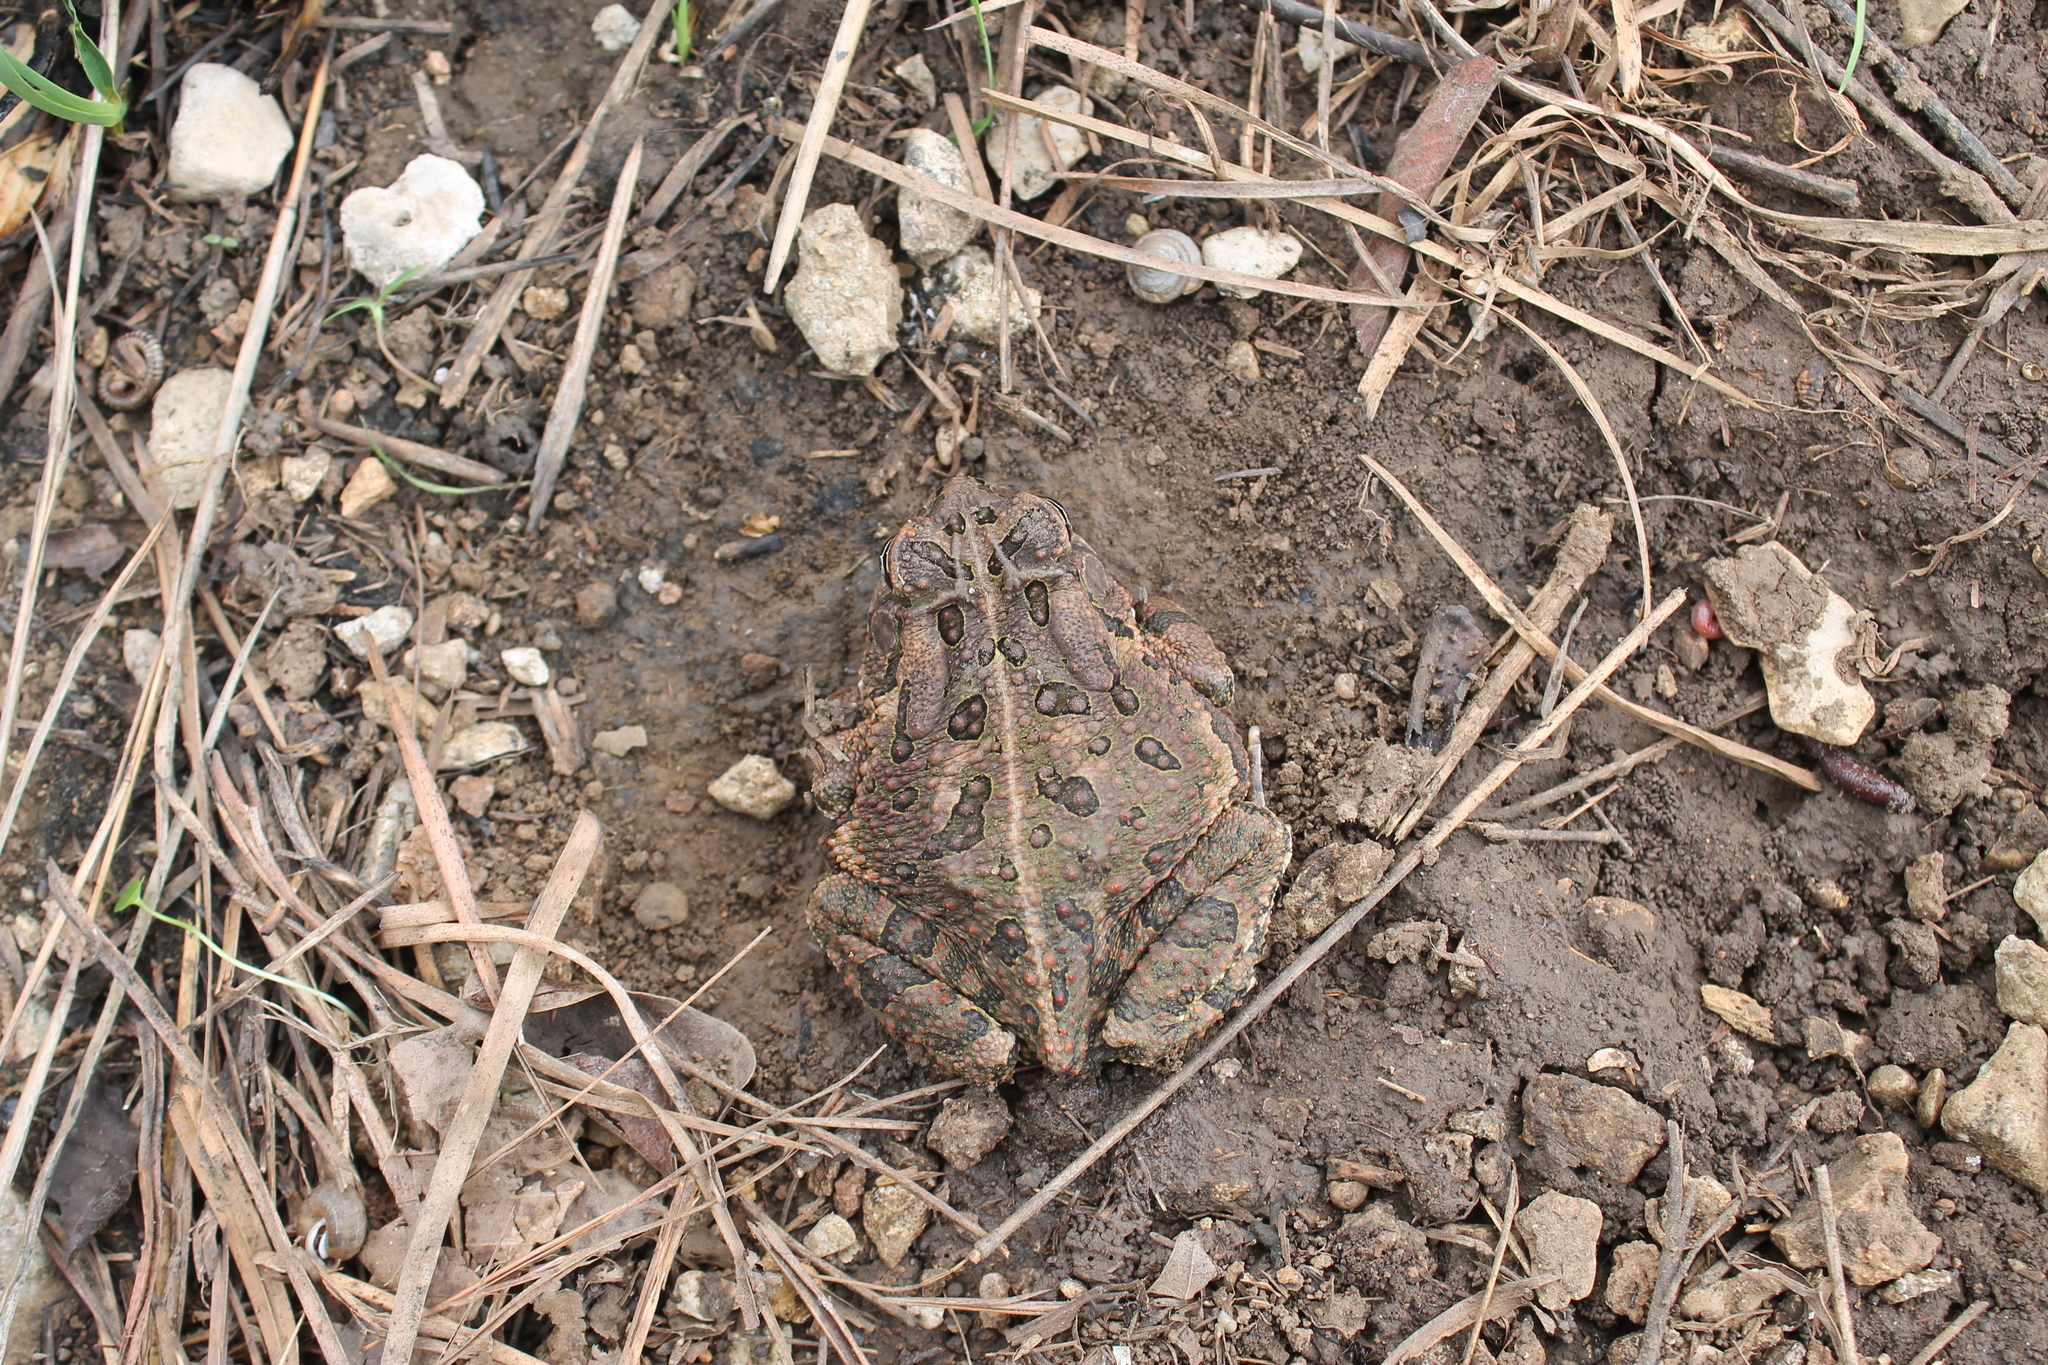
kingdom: Animalia
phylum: Chordata
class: Amphibia
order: Anura
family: Bufonidae
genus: Anaxyrus
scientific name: Anaxyrus fowleri
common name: Fowler's toad
